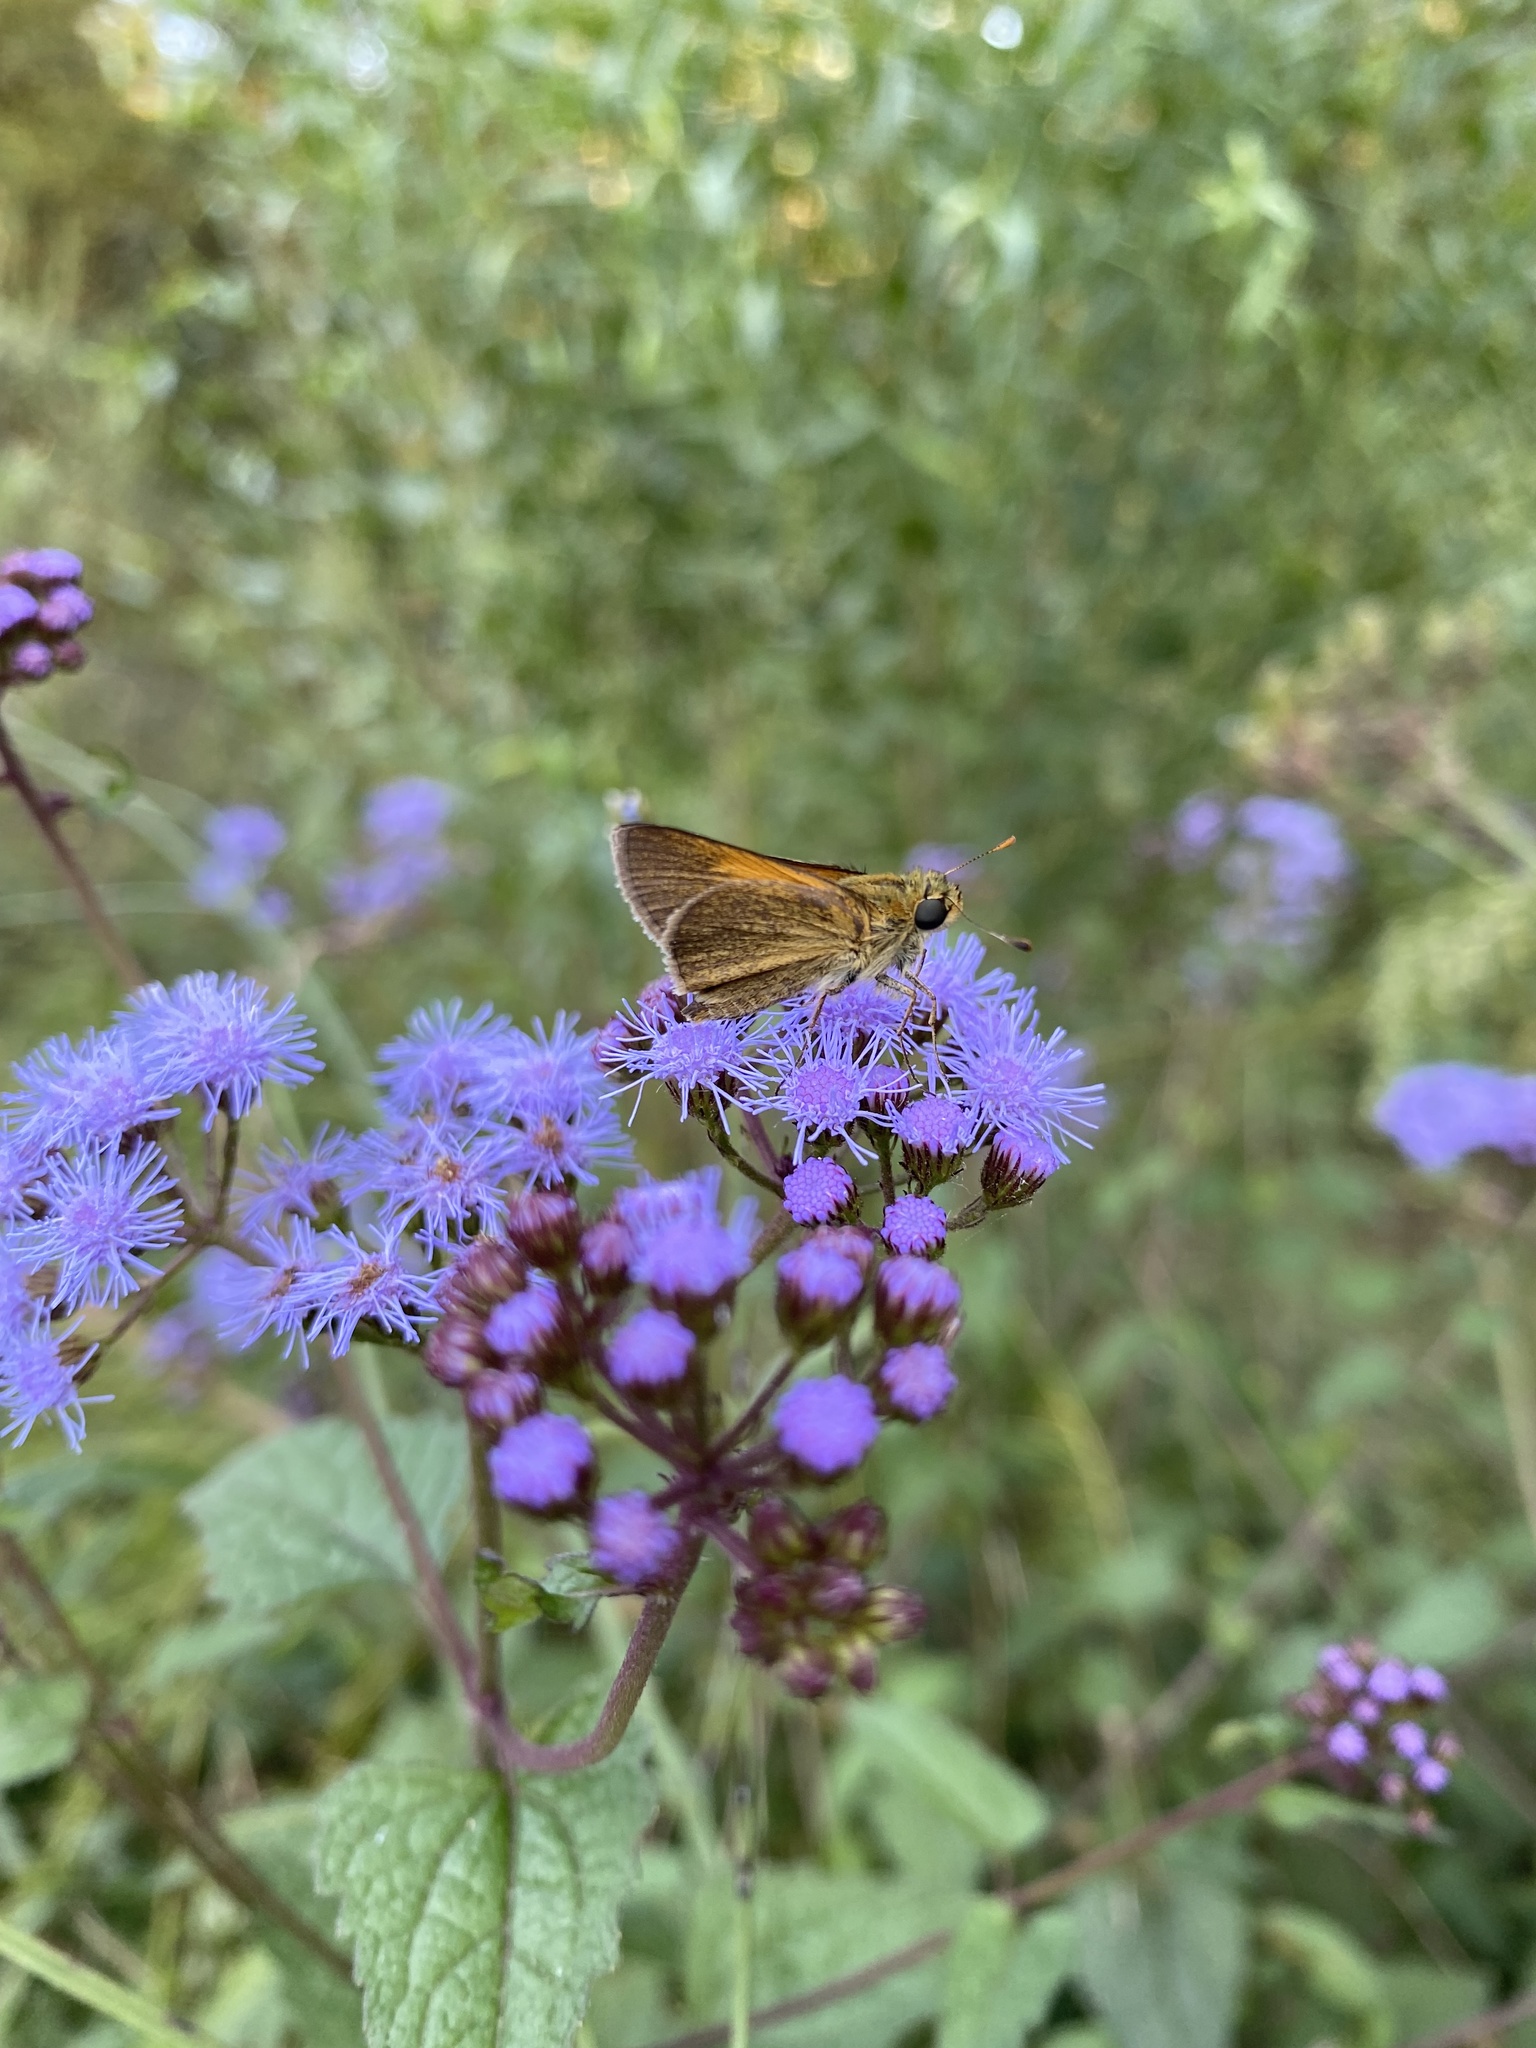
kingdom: Animalia
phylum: Arthropoda
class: Insecta
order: Lepidoptera
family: Hesperiidae
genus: Polites
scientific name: Polites themistocles
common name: Tawny-edged skipper
